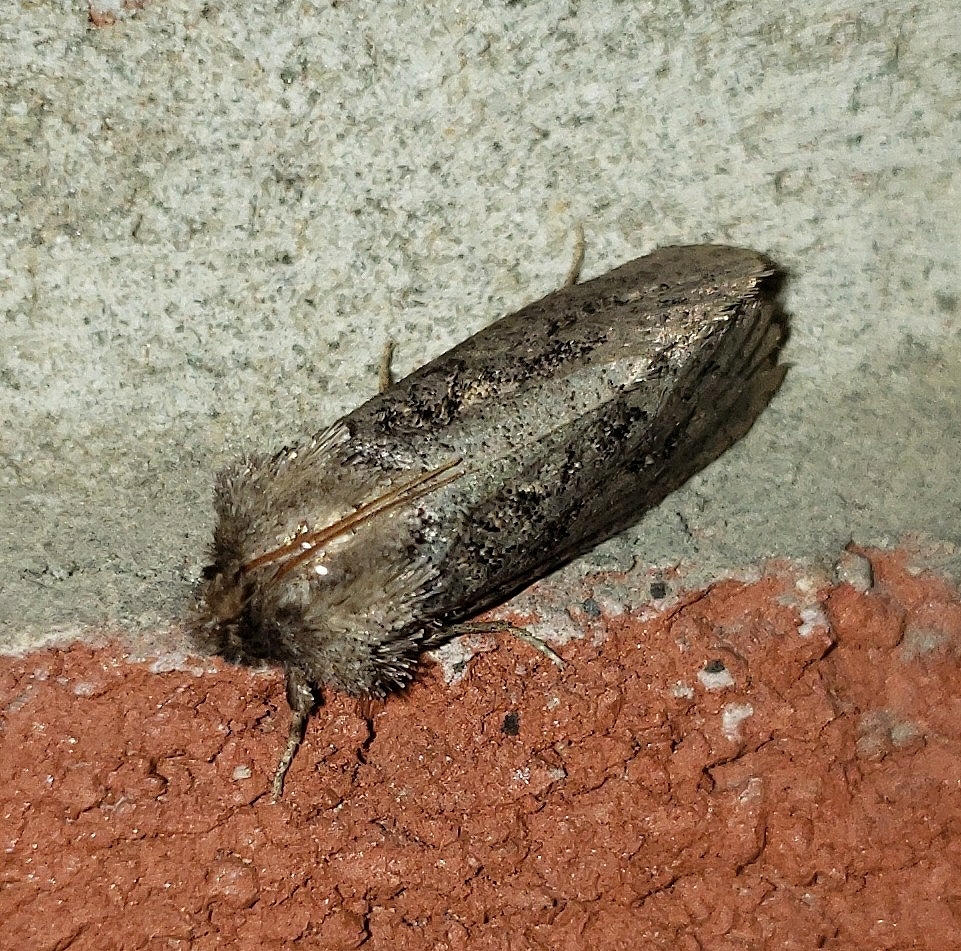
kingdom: Animalia
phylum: Arthropoda
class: Insecta
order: Lepidoptera
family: Tineidae
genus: Acrolophus
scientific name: Acrolophus arcanella
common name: Arcane grass tubeworm moth
